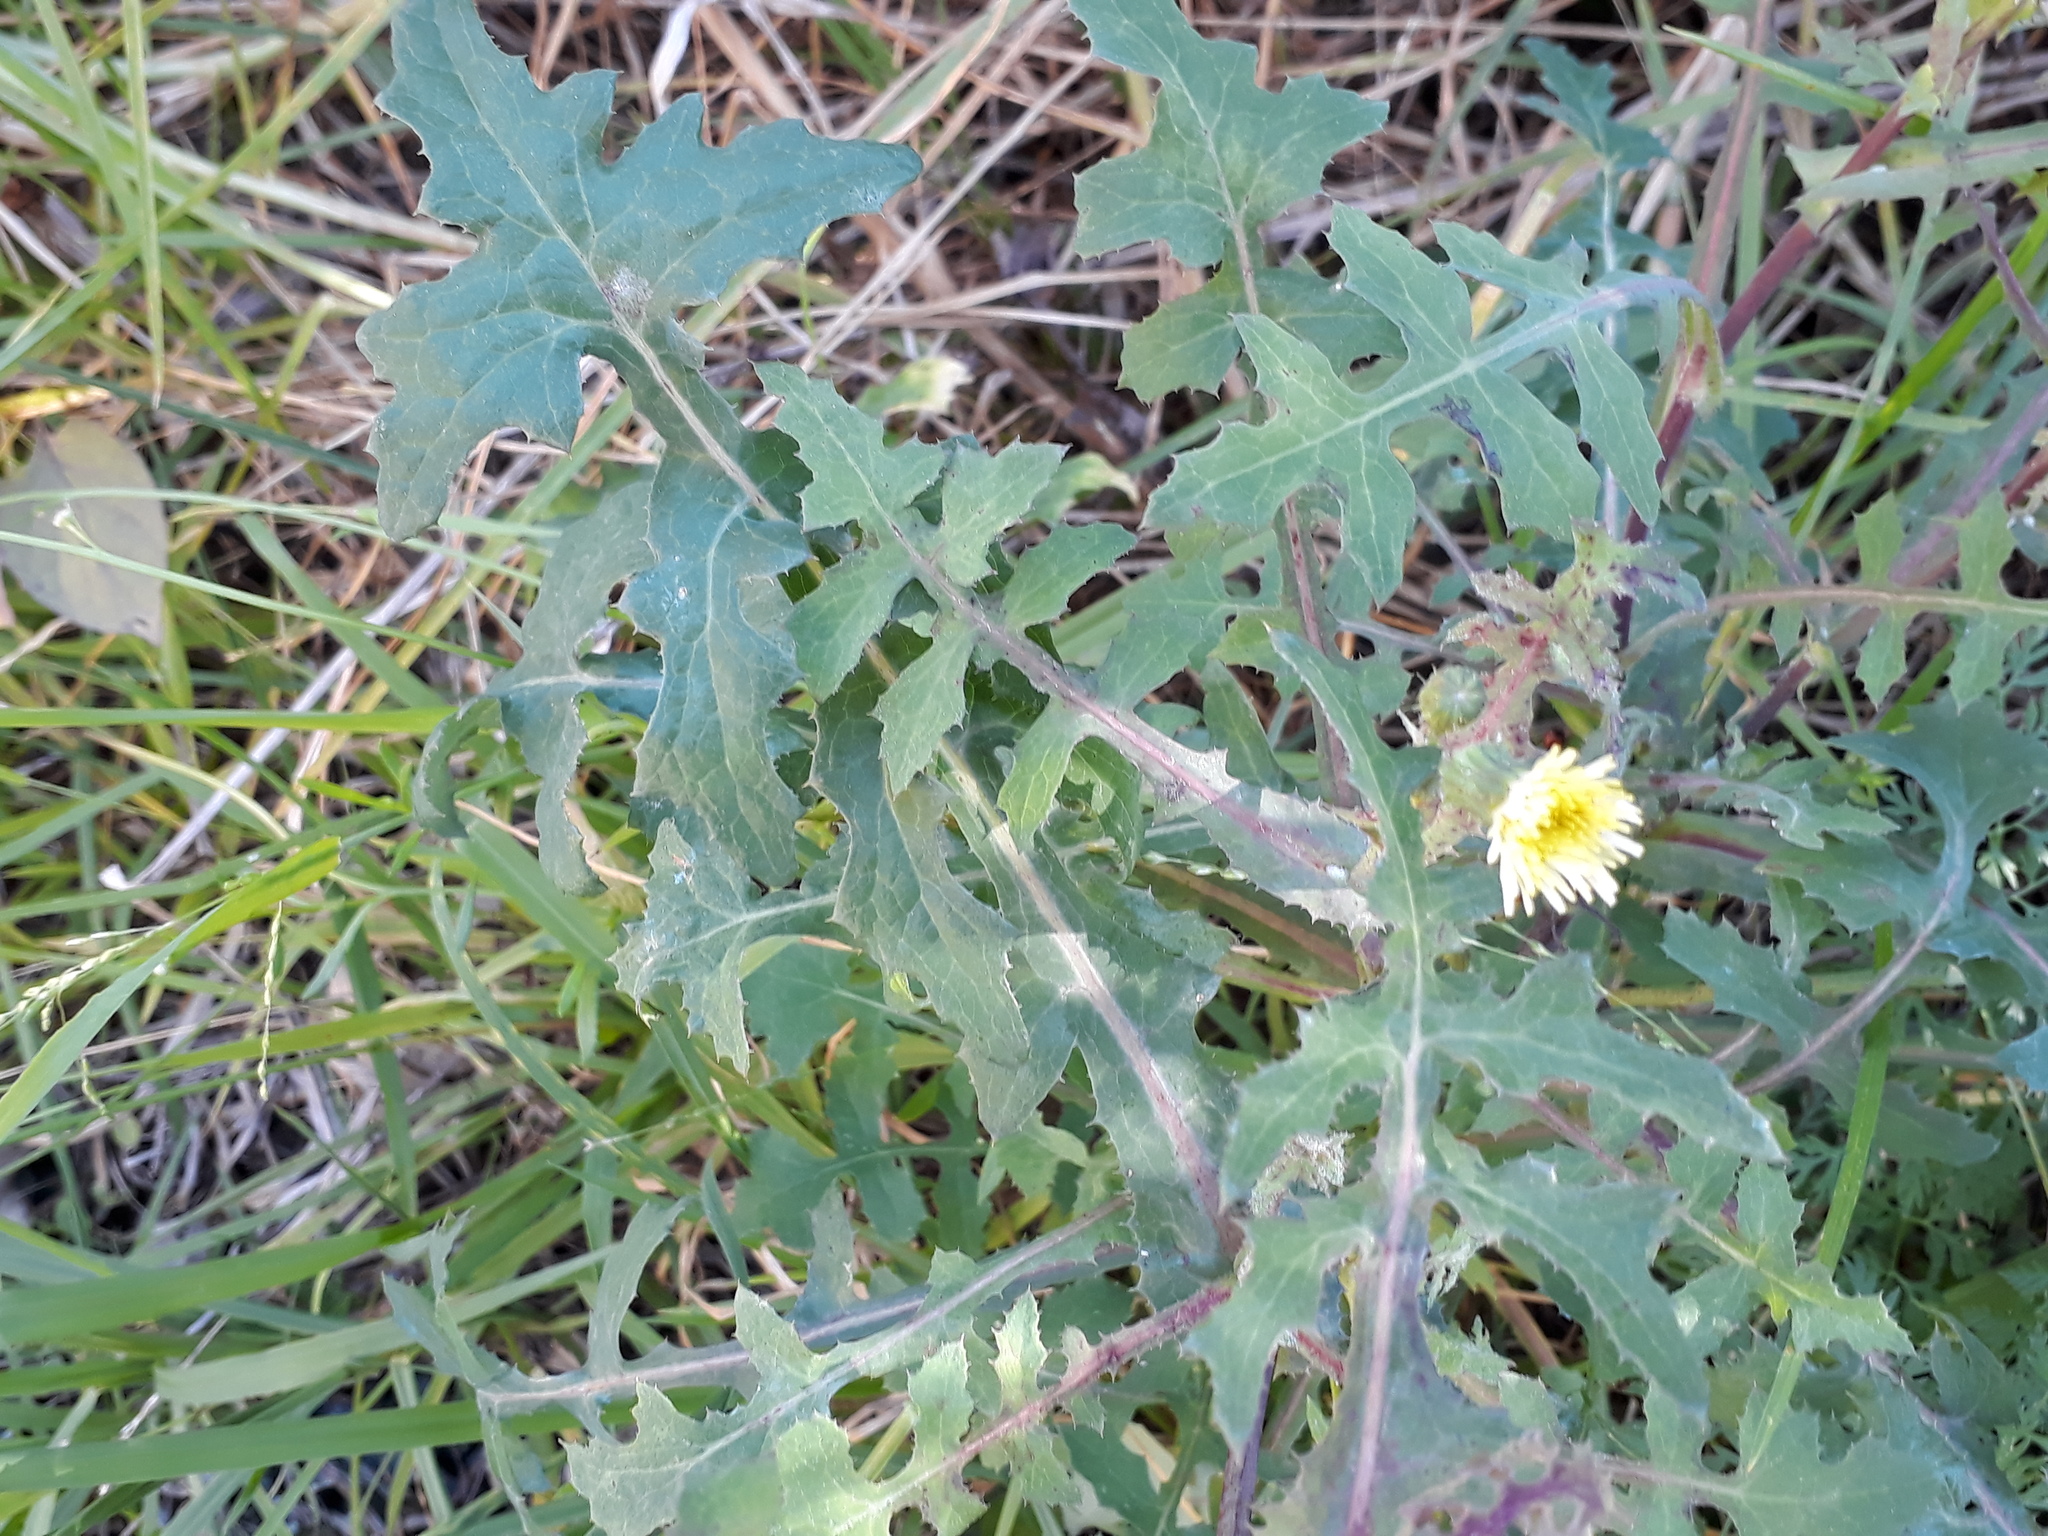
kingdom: Plantae
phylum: Tracheophyta
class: Magnoliopsida
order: Asterales
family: Asteraceae
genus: Sonchus
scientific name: Sonchus oleraceus
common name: Common sowthistle
